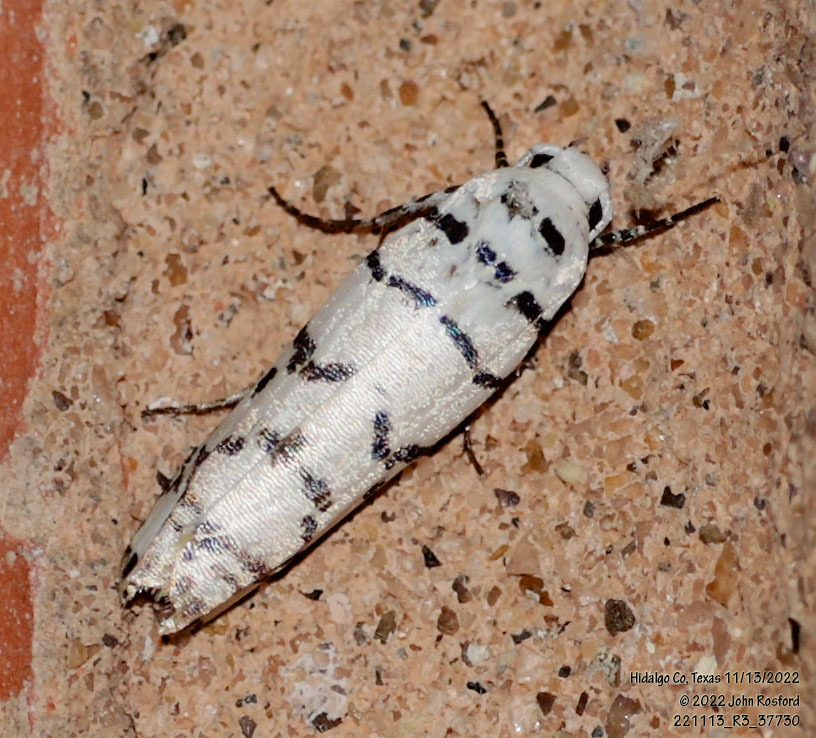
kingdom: Animalia
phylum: Arthropoda
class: Insecta
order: Lepidoptera
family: Ethmiidae
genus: Ethmia
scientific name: Ethmia delliella
